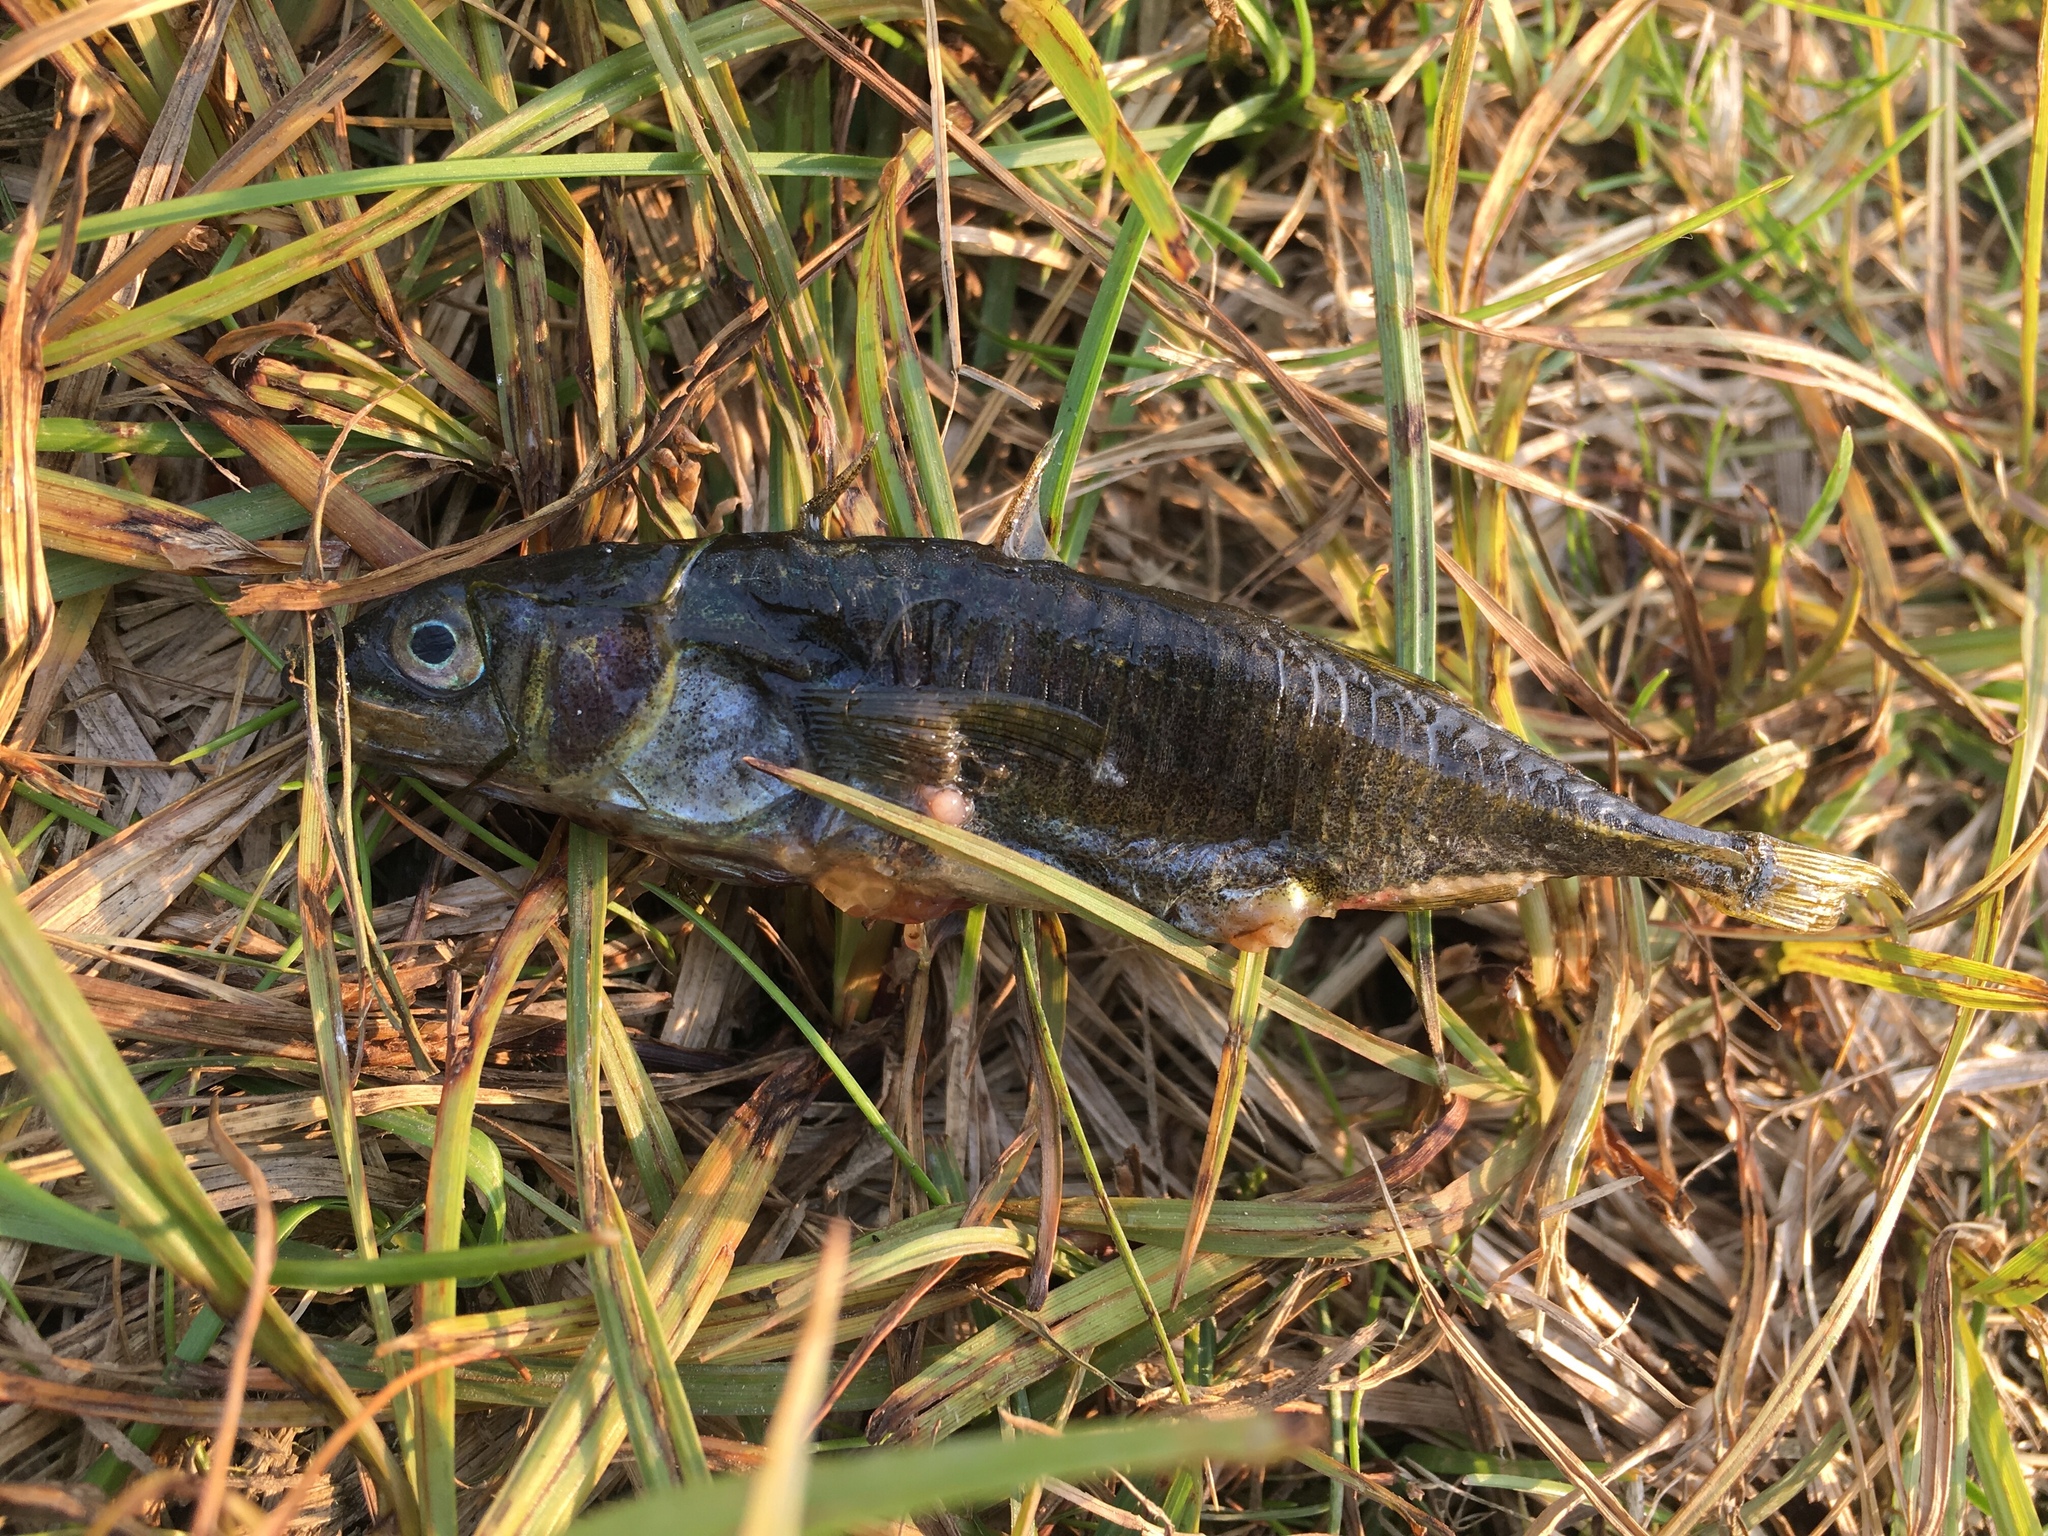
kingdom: Animalia
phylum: Chordata
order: Gasterosteiformes
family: Gasterosteidae
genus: Gasterosteus
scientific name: Gasterosteus aculeatus
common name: Three-spined stickleback
